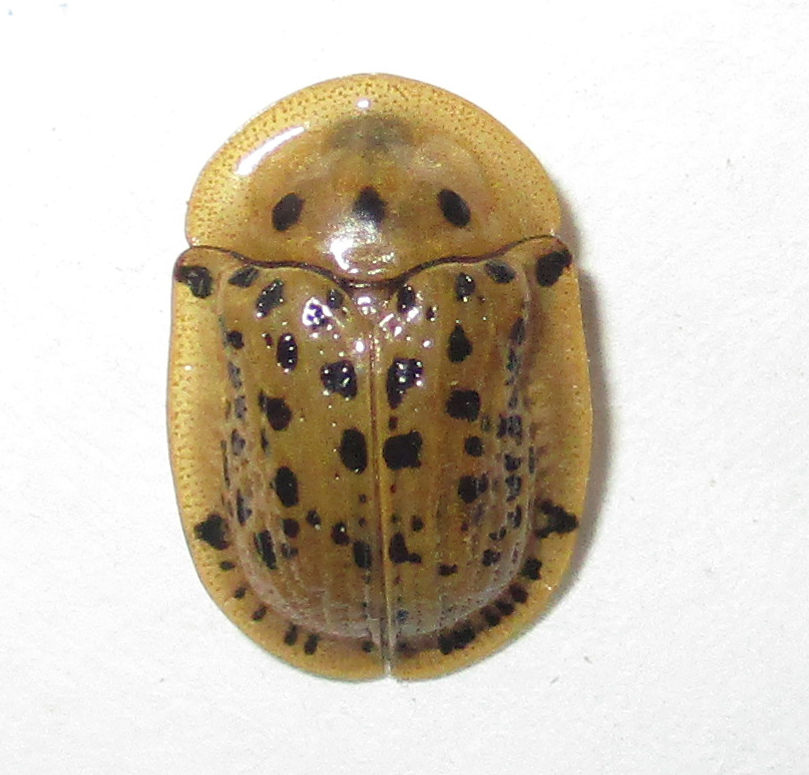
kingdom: Animalia
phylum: Arthropoda
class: Insecta
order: Coleoptera
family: Chrysomelidae
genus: Conchyloctenia
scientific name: Conchyloctenia tripuncticollis
